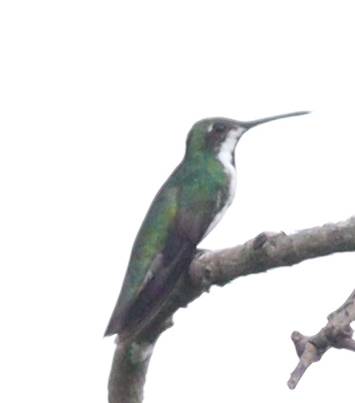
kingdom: Animalia
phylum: Chordata
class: Aves
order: Apodiformes
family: Trochilidae
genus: Anthracothorax
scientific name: Anthracothorax nigricollis
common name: Black-throated mango
